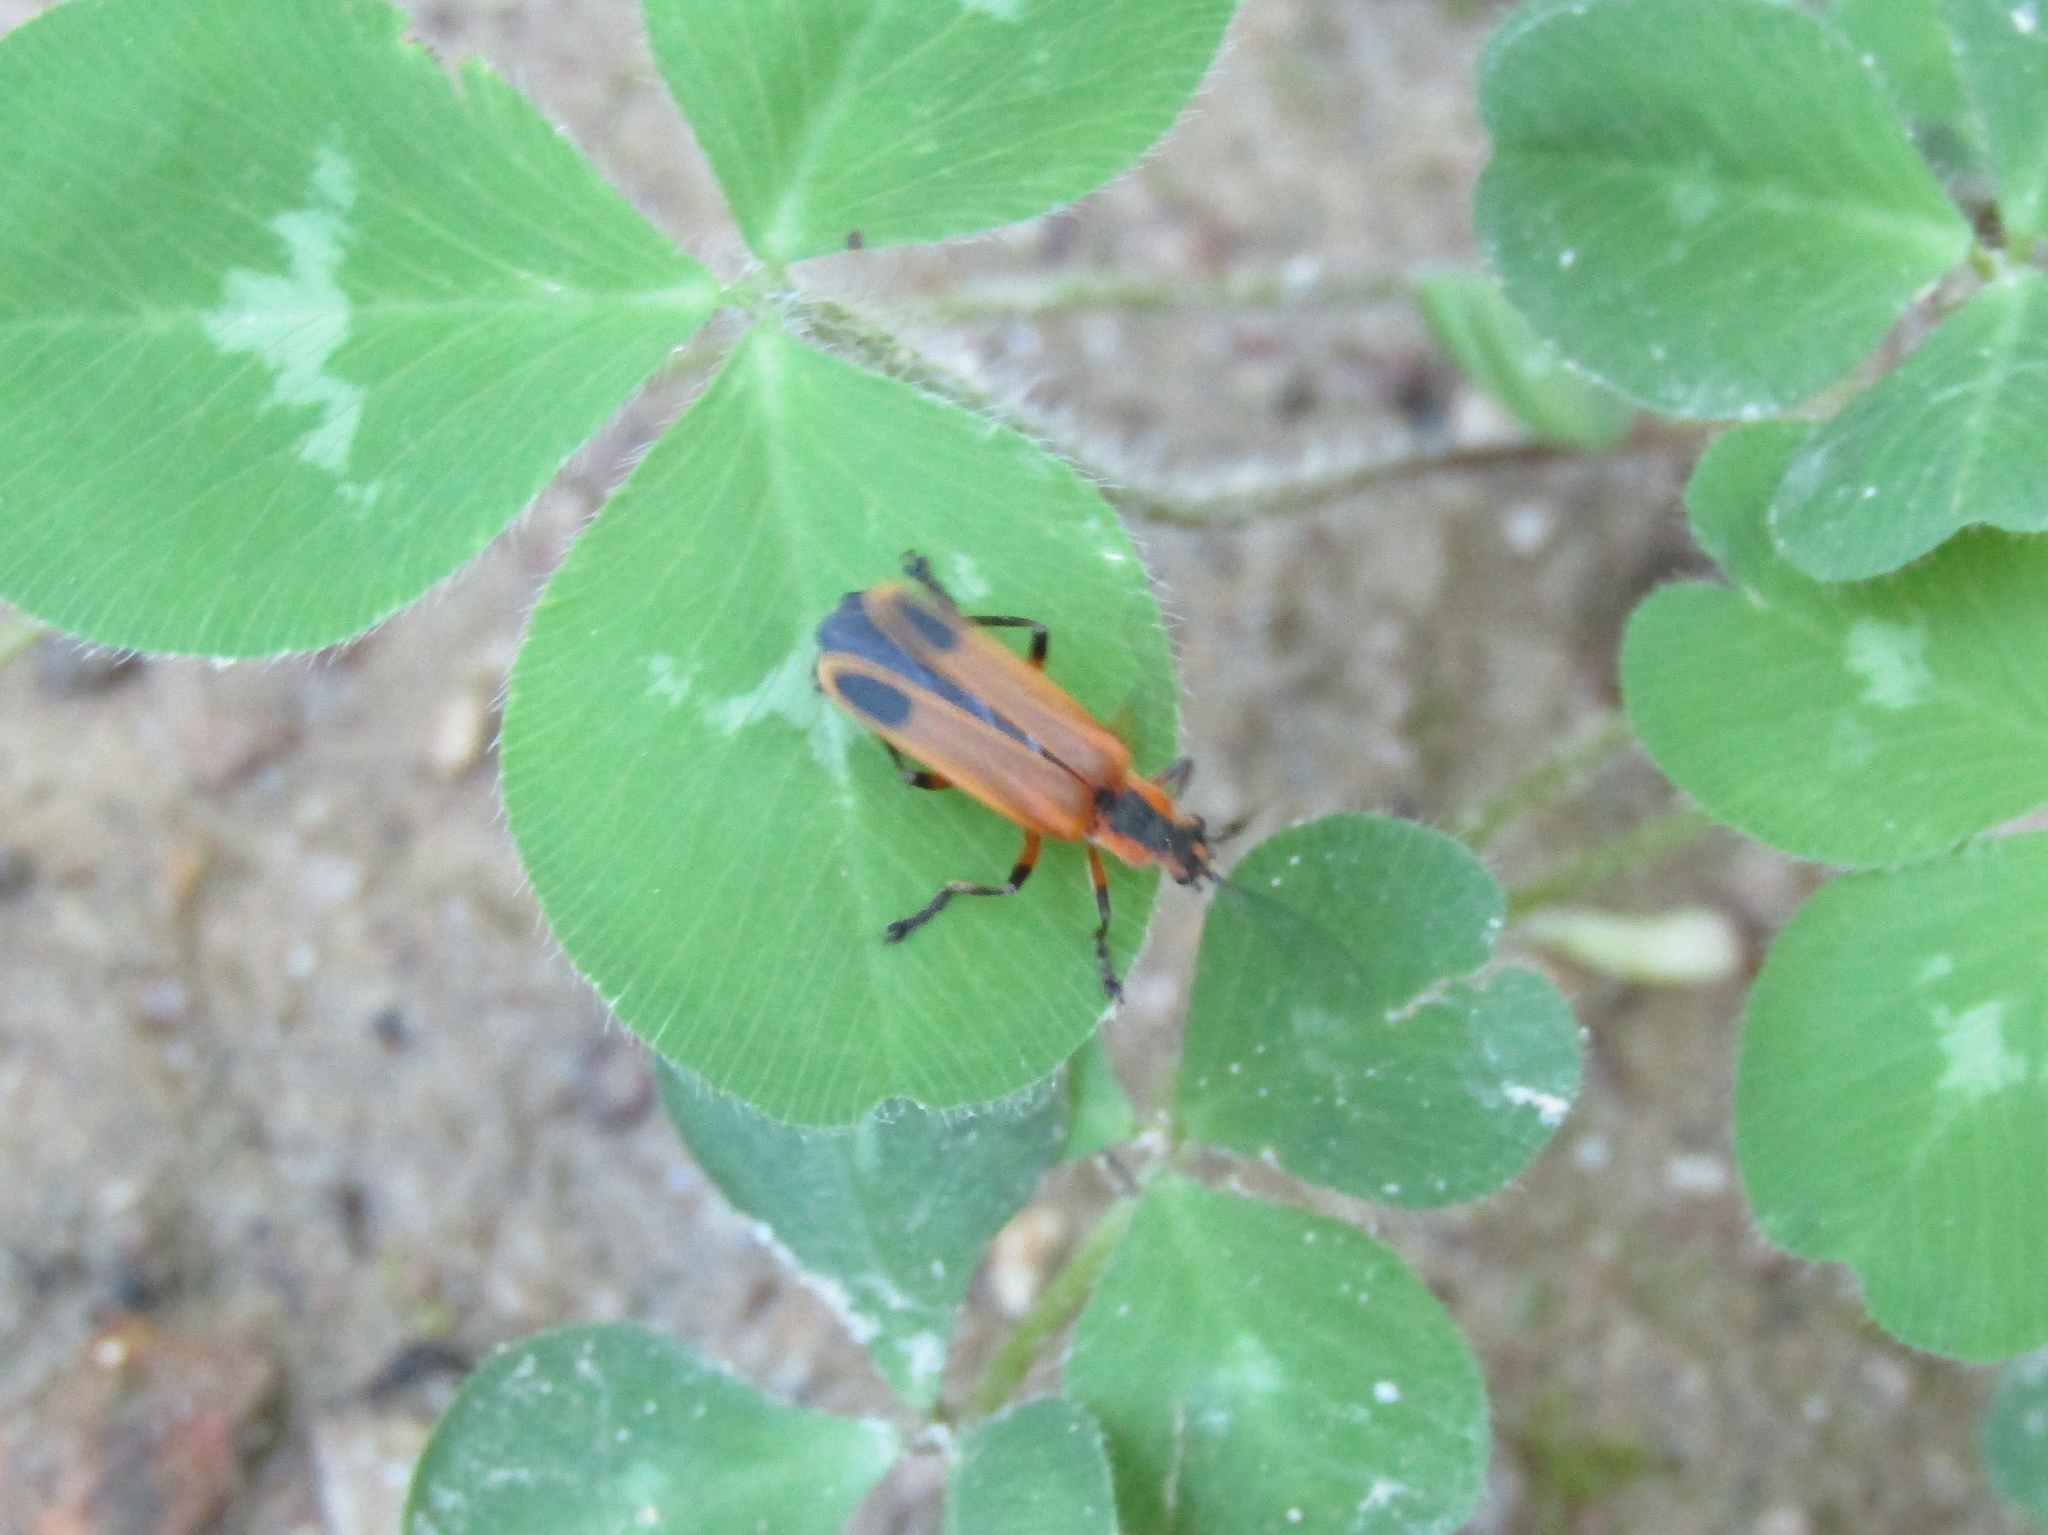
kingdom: Animalia
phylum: Arthropoda
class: Insecta
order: Coleoptera
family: Cantharidae
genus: Chauliognathus
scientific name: Chauliognathus marginatus
